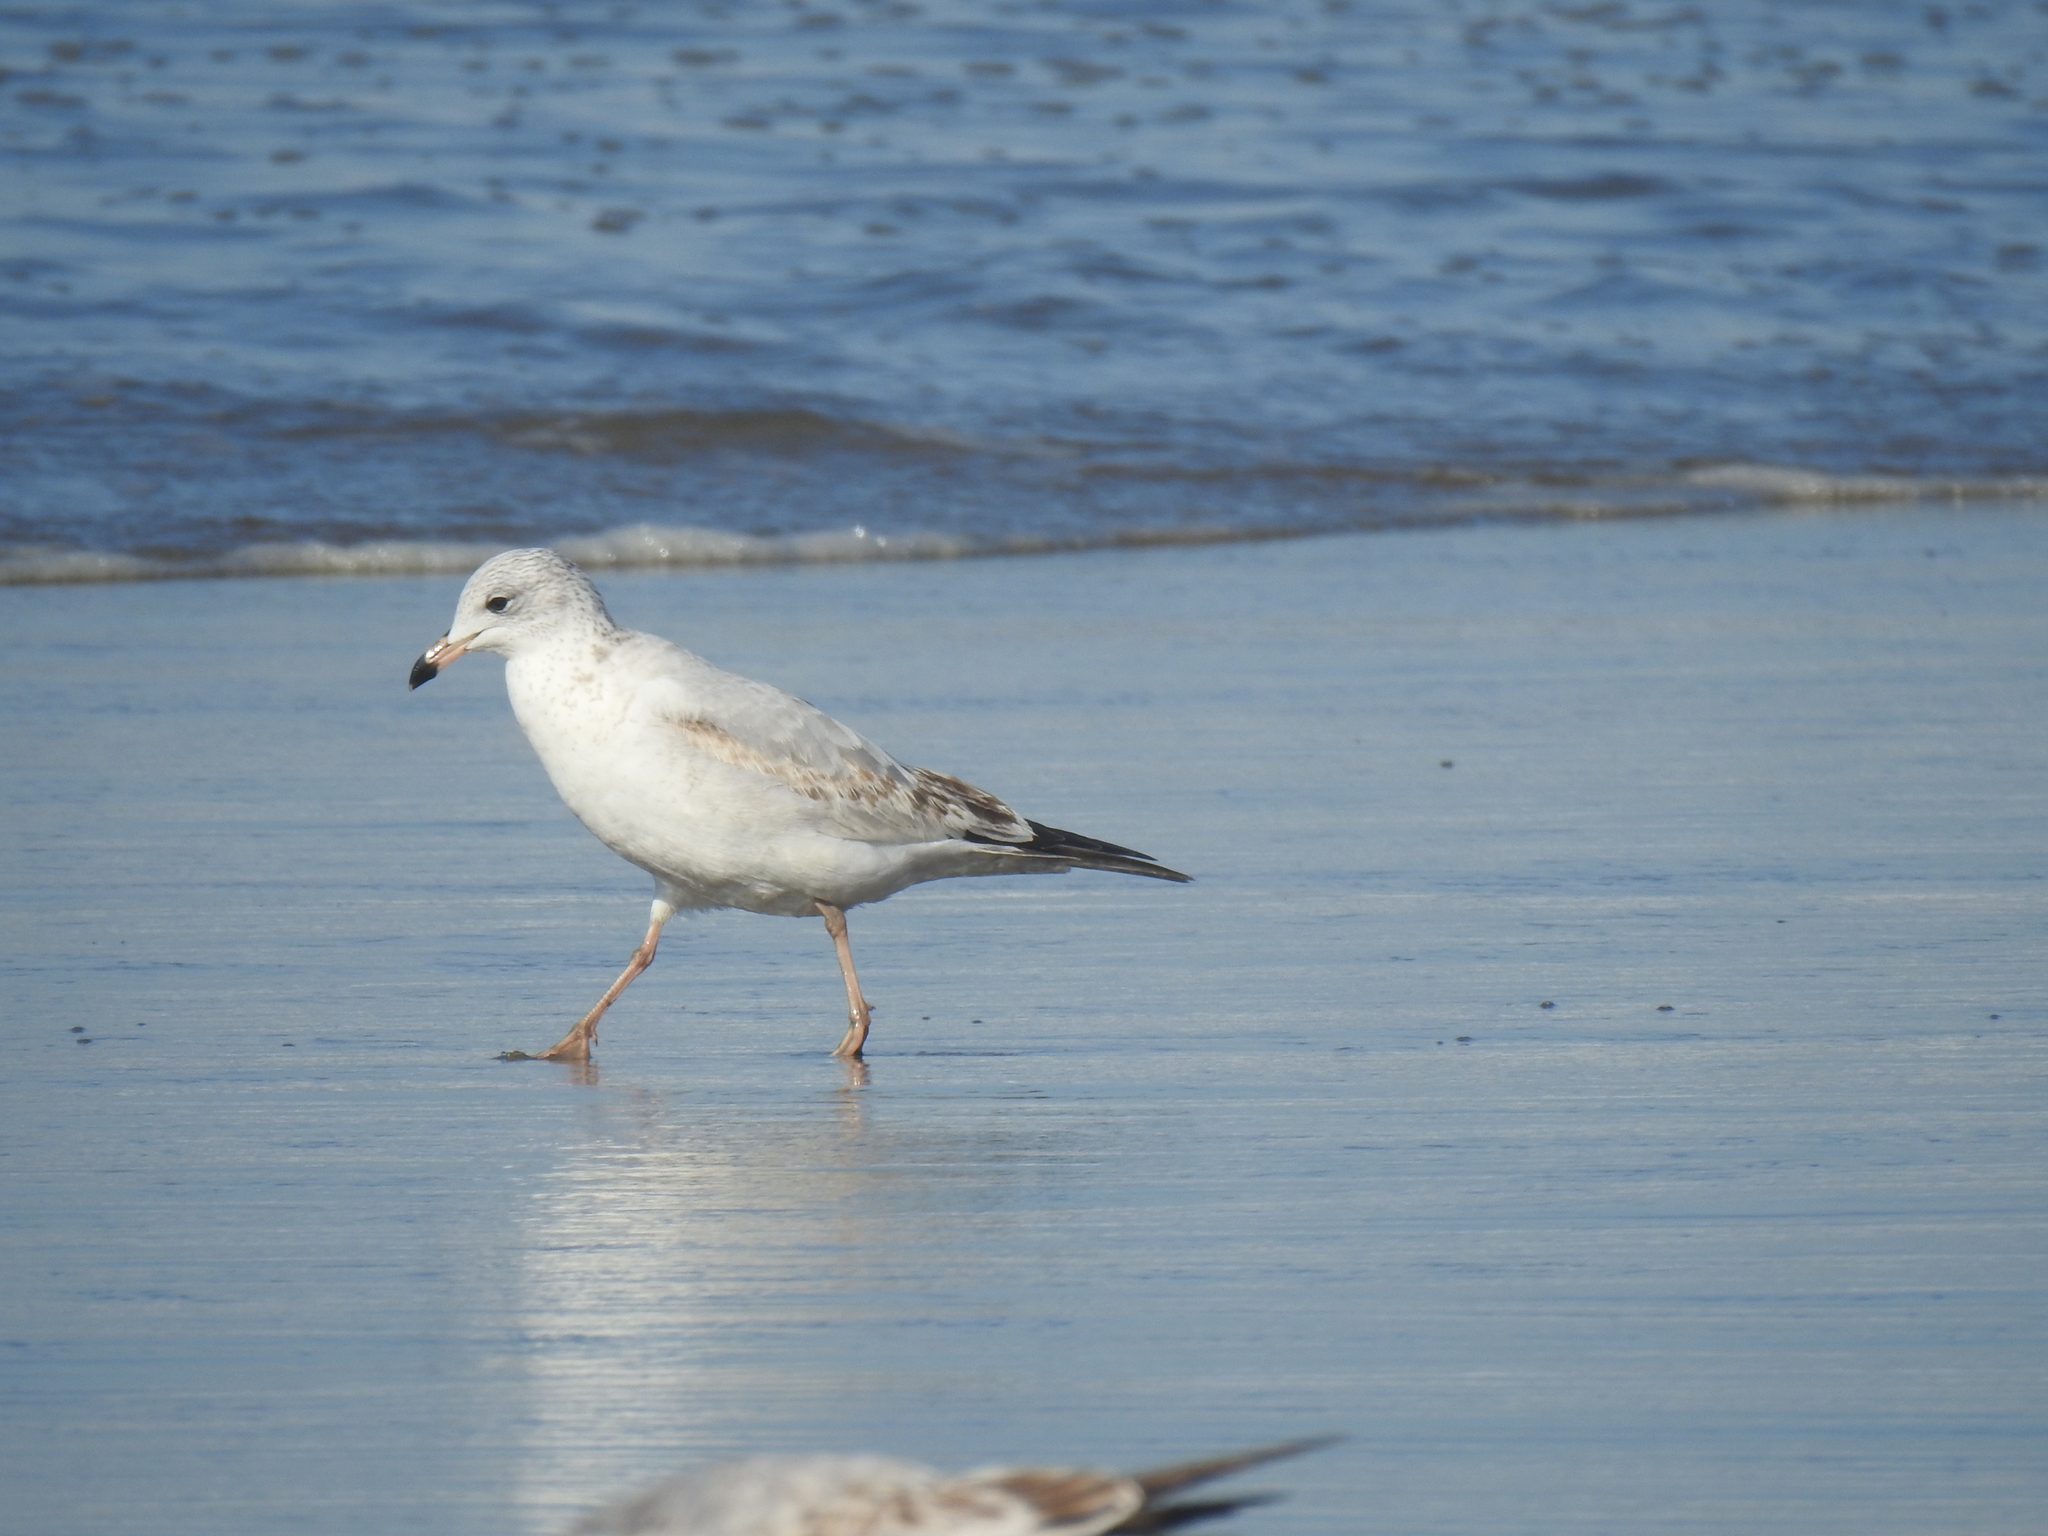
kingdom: Animalia
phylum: Chordata
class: Aves
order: Charadriiformes
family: Laridae
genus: Larus
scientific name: Larus delawarensis
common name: Ring-billed gull
